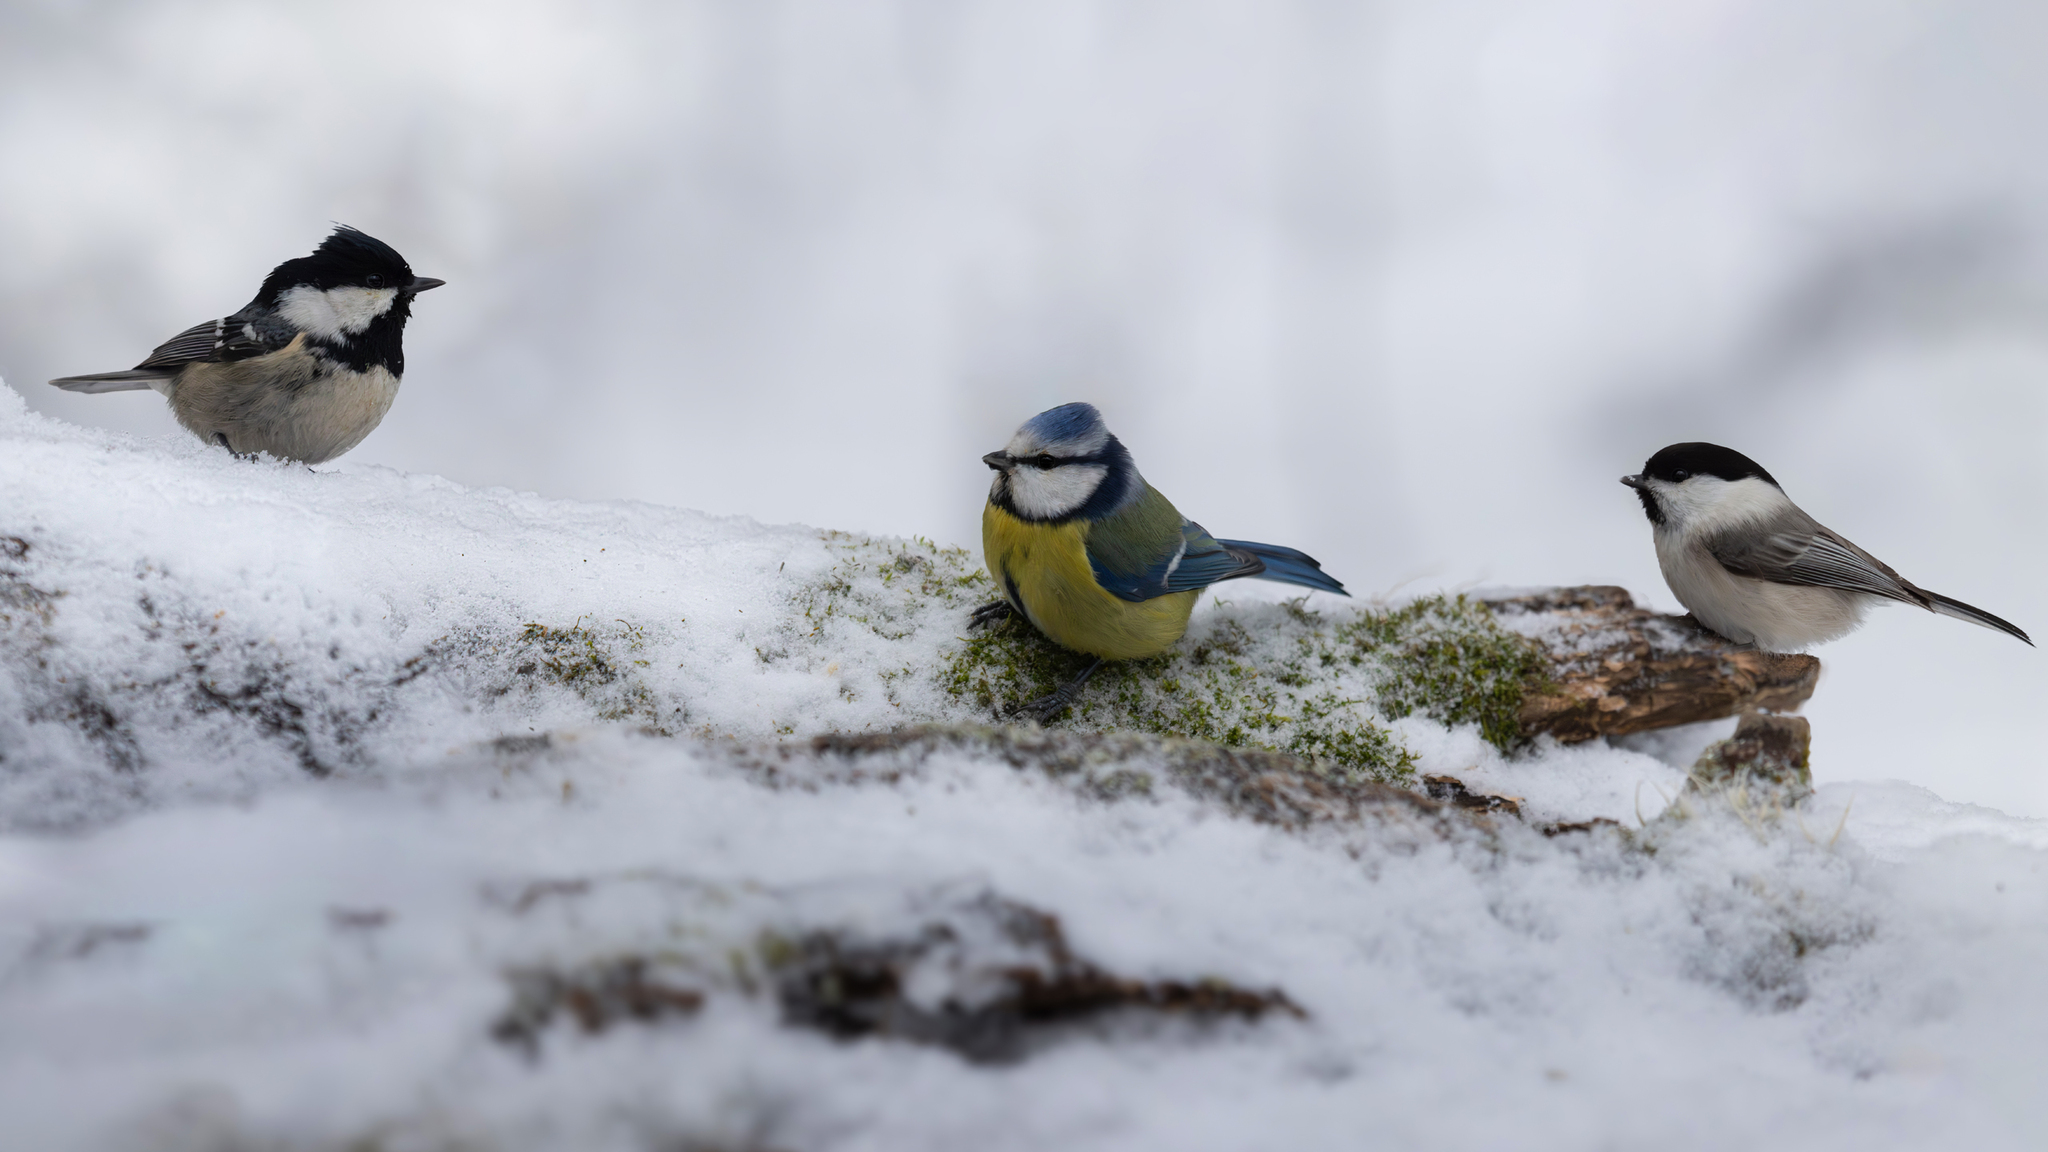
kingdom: Animalia
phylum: Chordata
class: Aves
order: Passeriformes
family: Paridae
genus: Periparus
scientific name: Periparus ater
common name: Coal tit
